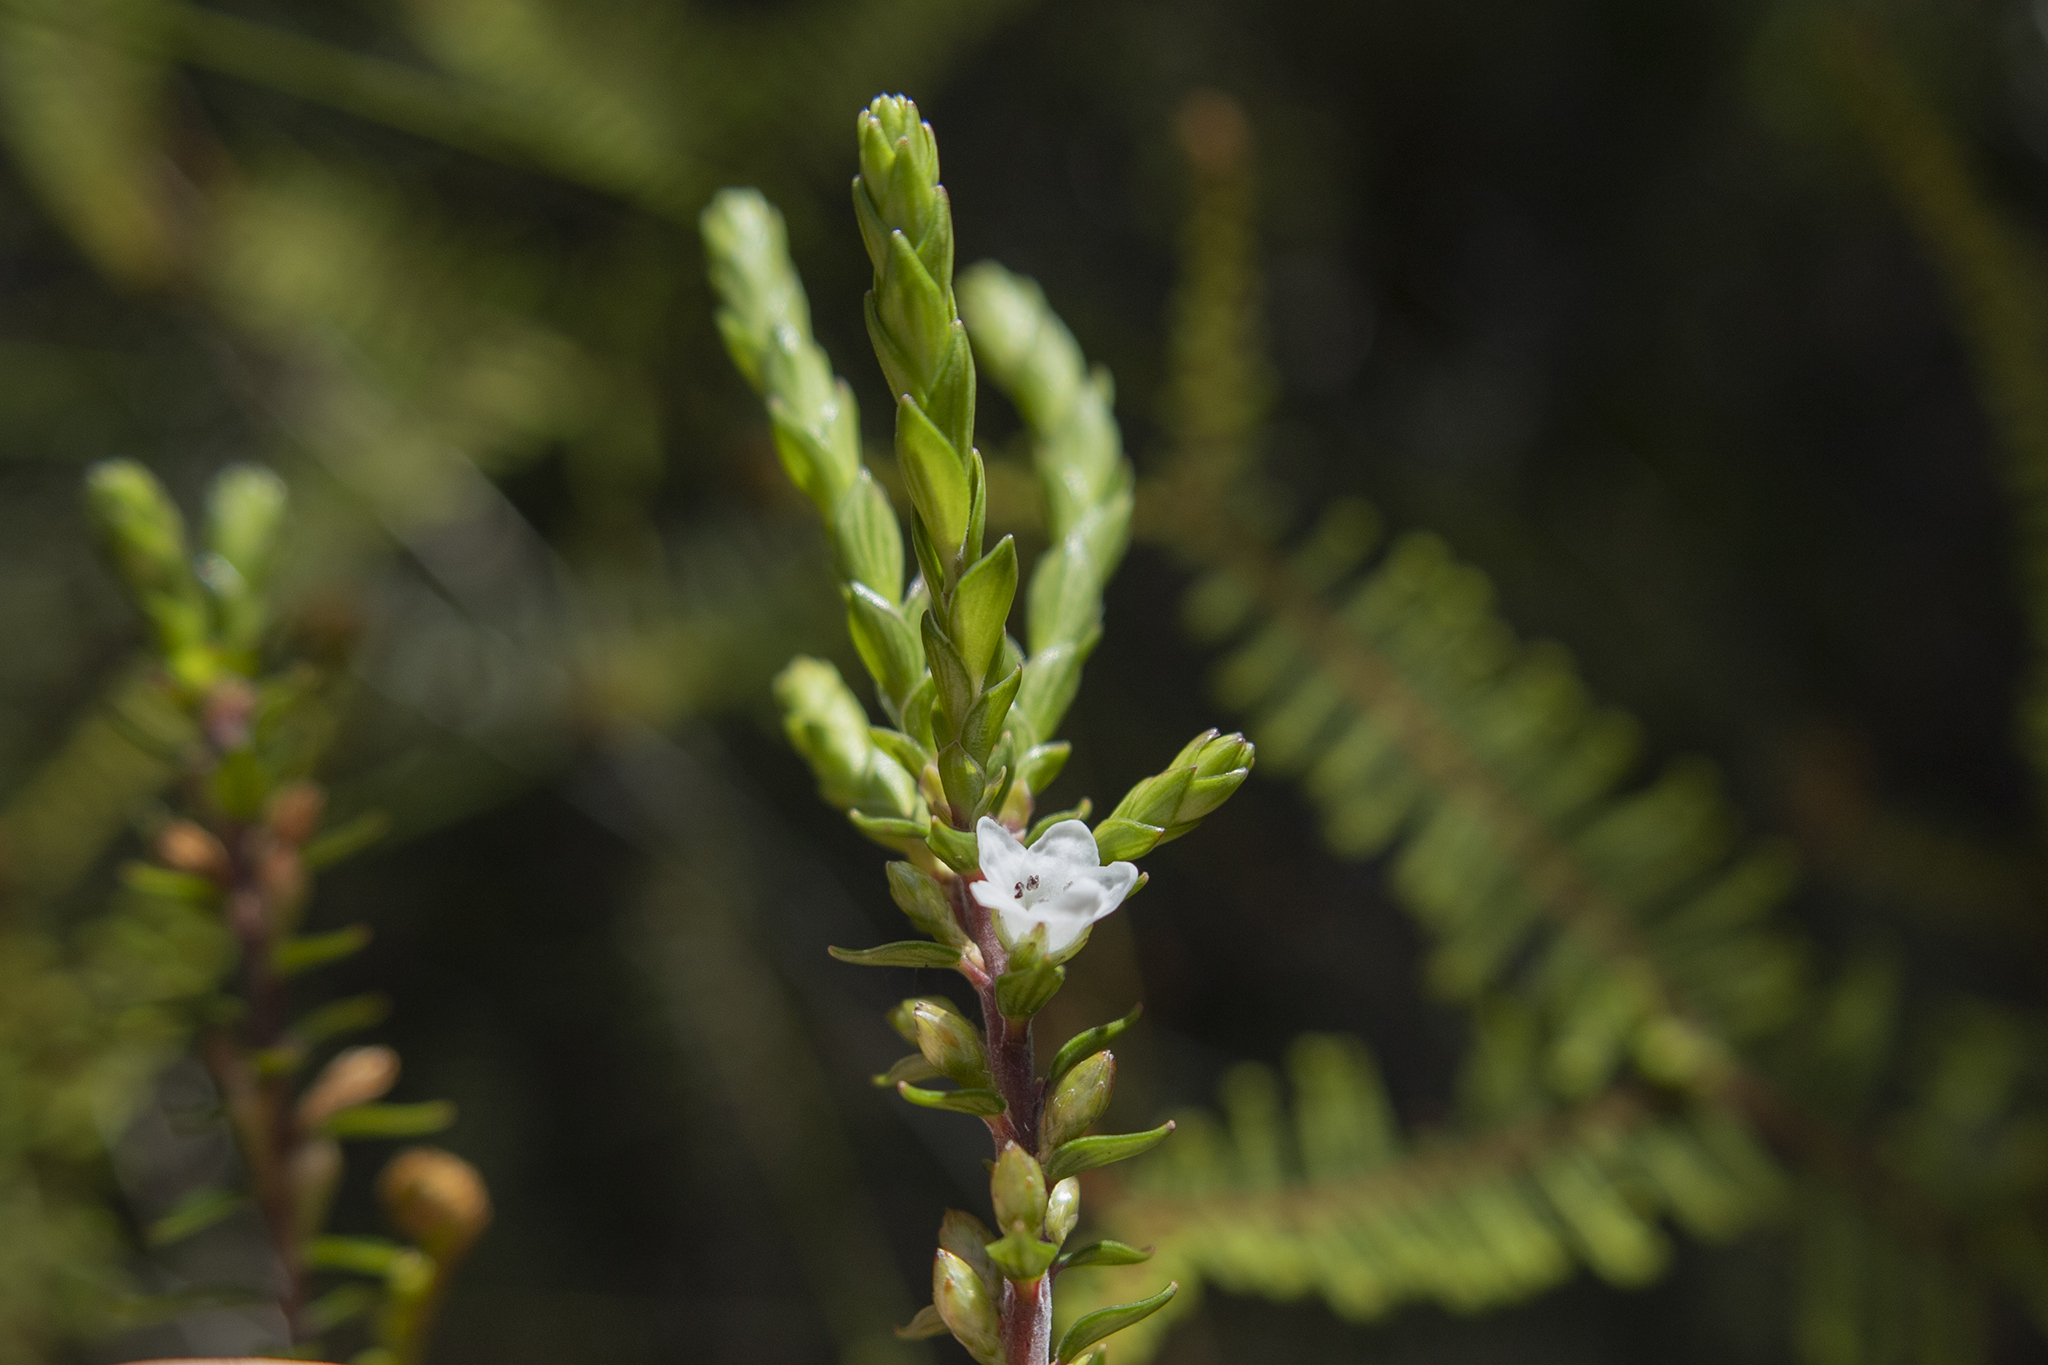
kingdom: Plantae
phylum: Tracheophyta
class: Magnoliopsida
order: Ericales
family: Ericaceae
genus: Epacris
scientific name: Epacris pauciflora
